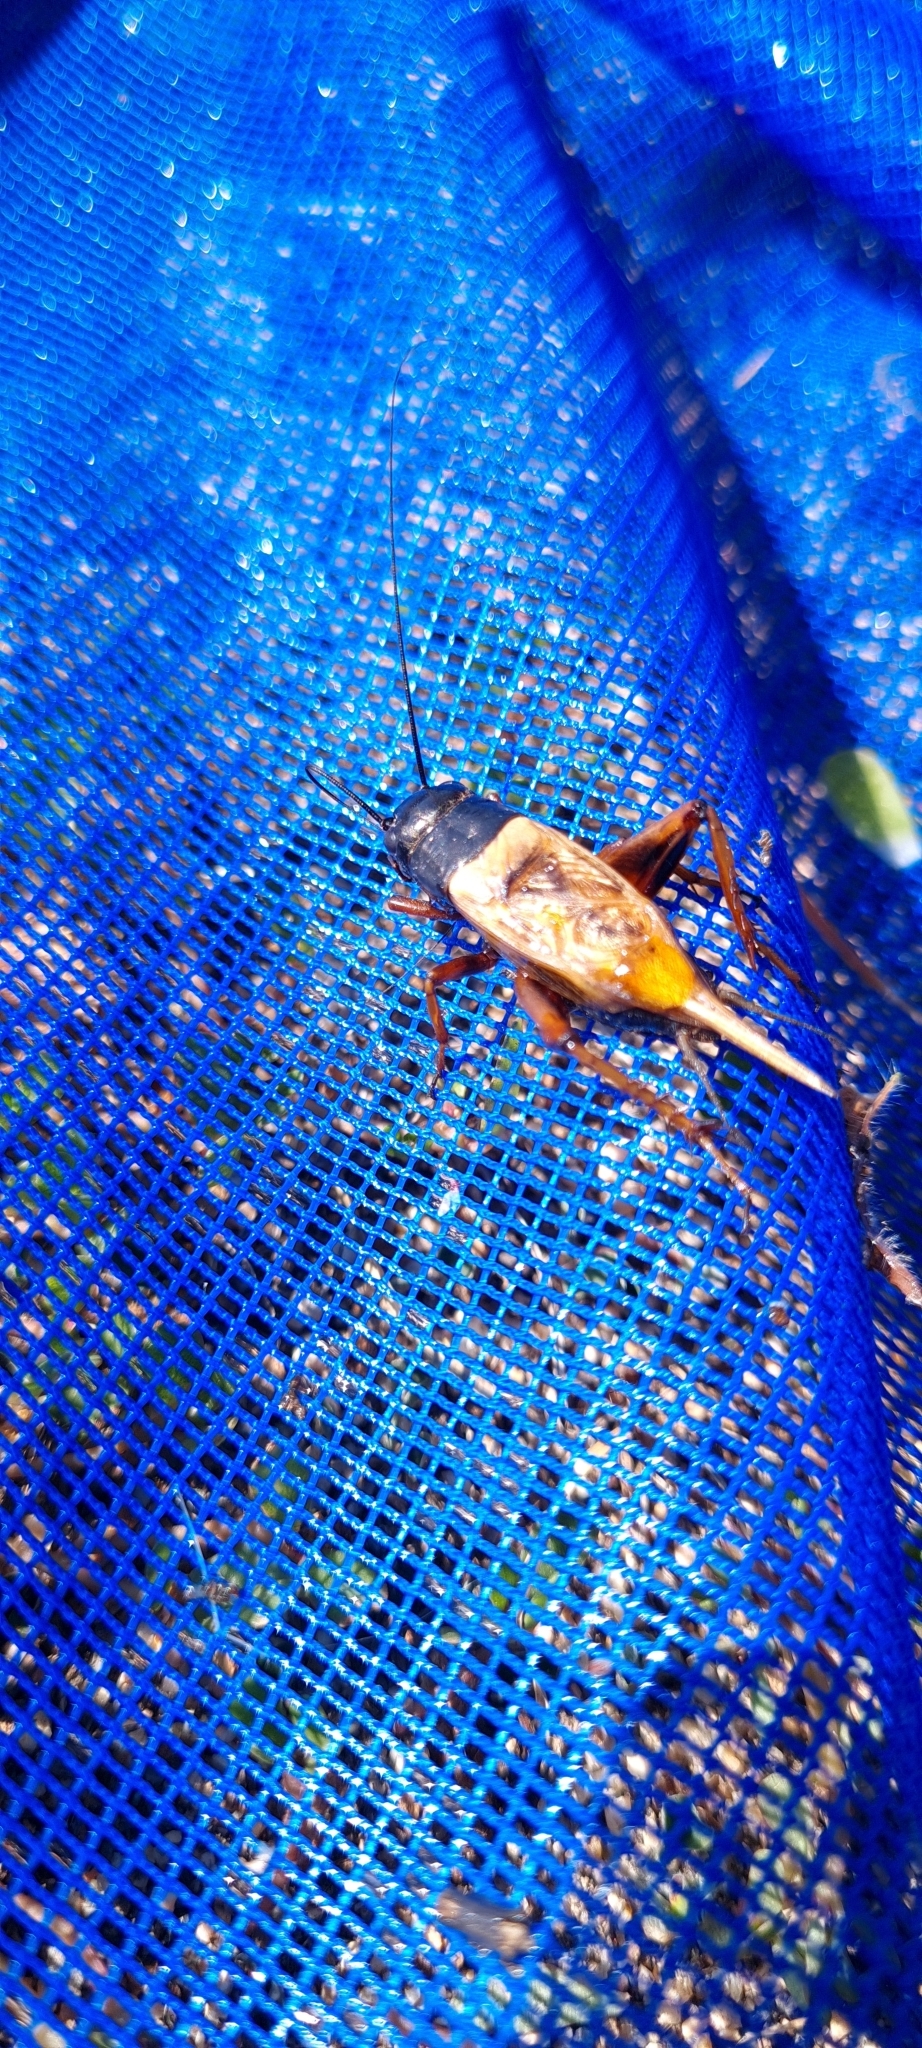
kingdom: Animalia
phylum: Arthropoda
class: Insecta
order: Orthoptera
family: Gryllidae
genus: Gryllus
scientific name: Gryllus bimaculatus
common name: Two-spotted cricket
